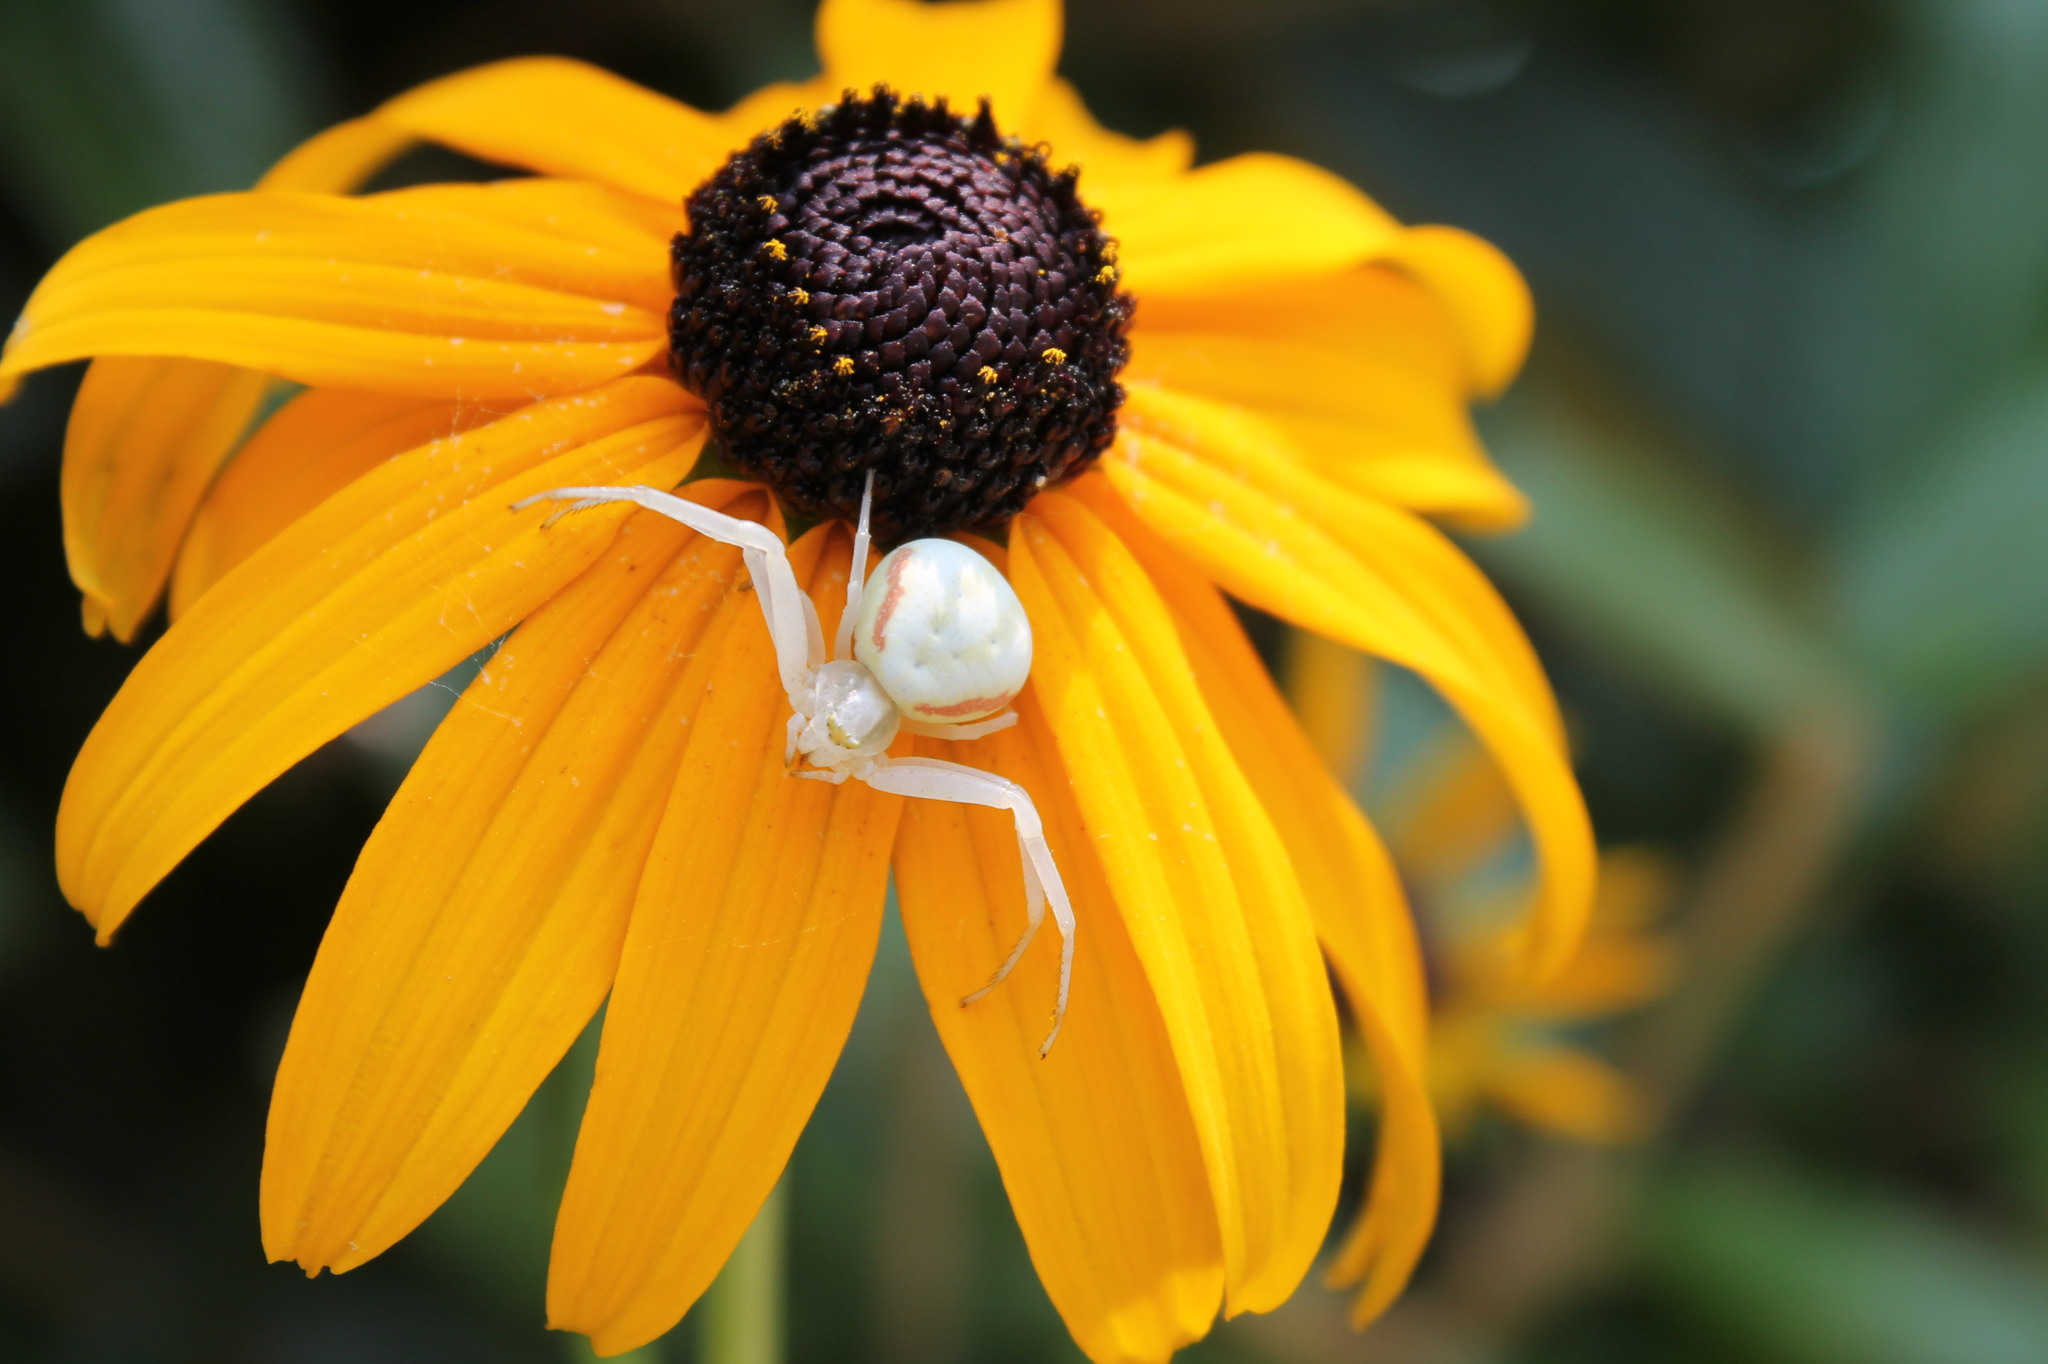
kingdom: Animalia
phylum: Arthropoda
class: Arachnida
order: Araneae
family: Thomisidae
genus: Misumena
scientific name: Misumena vatia
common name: Goldenrod crab spider
